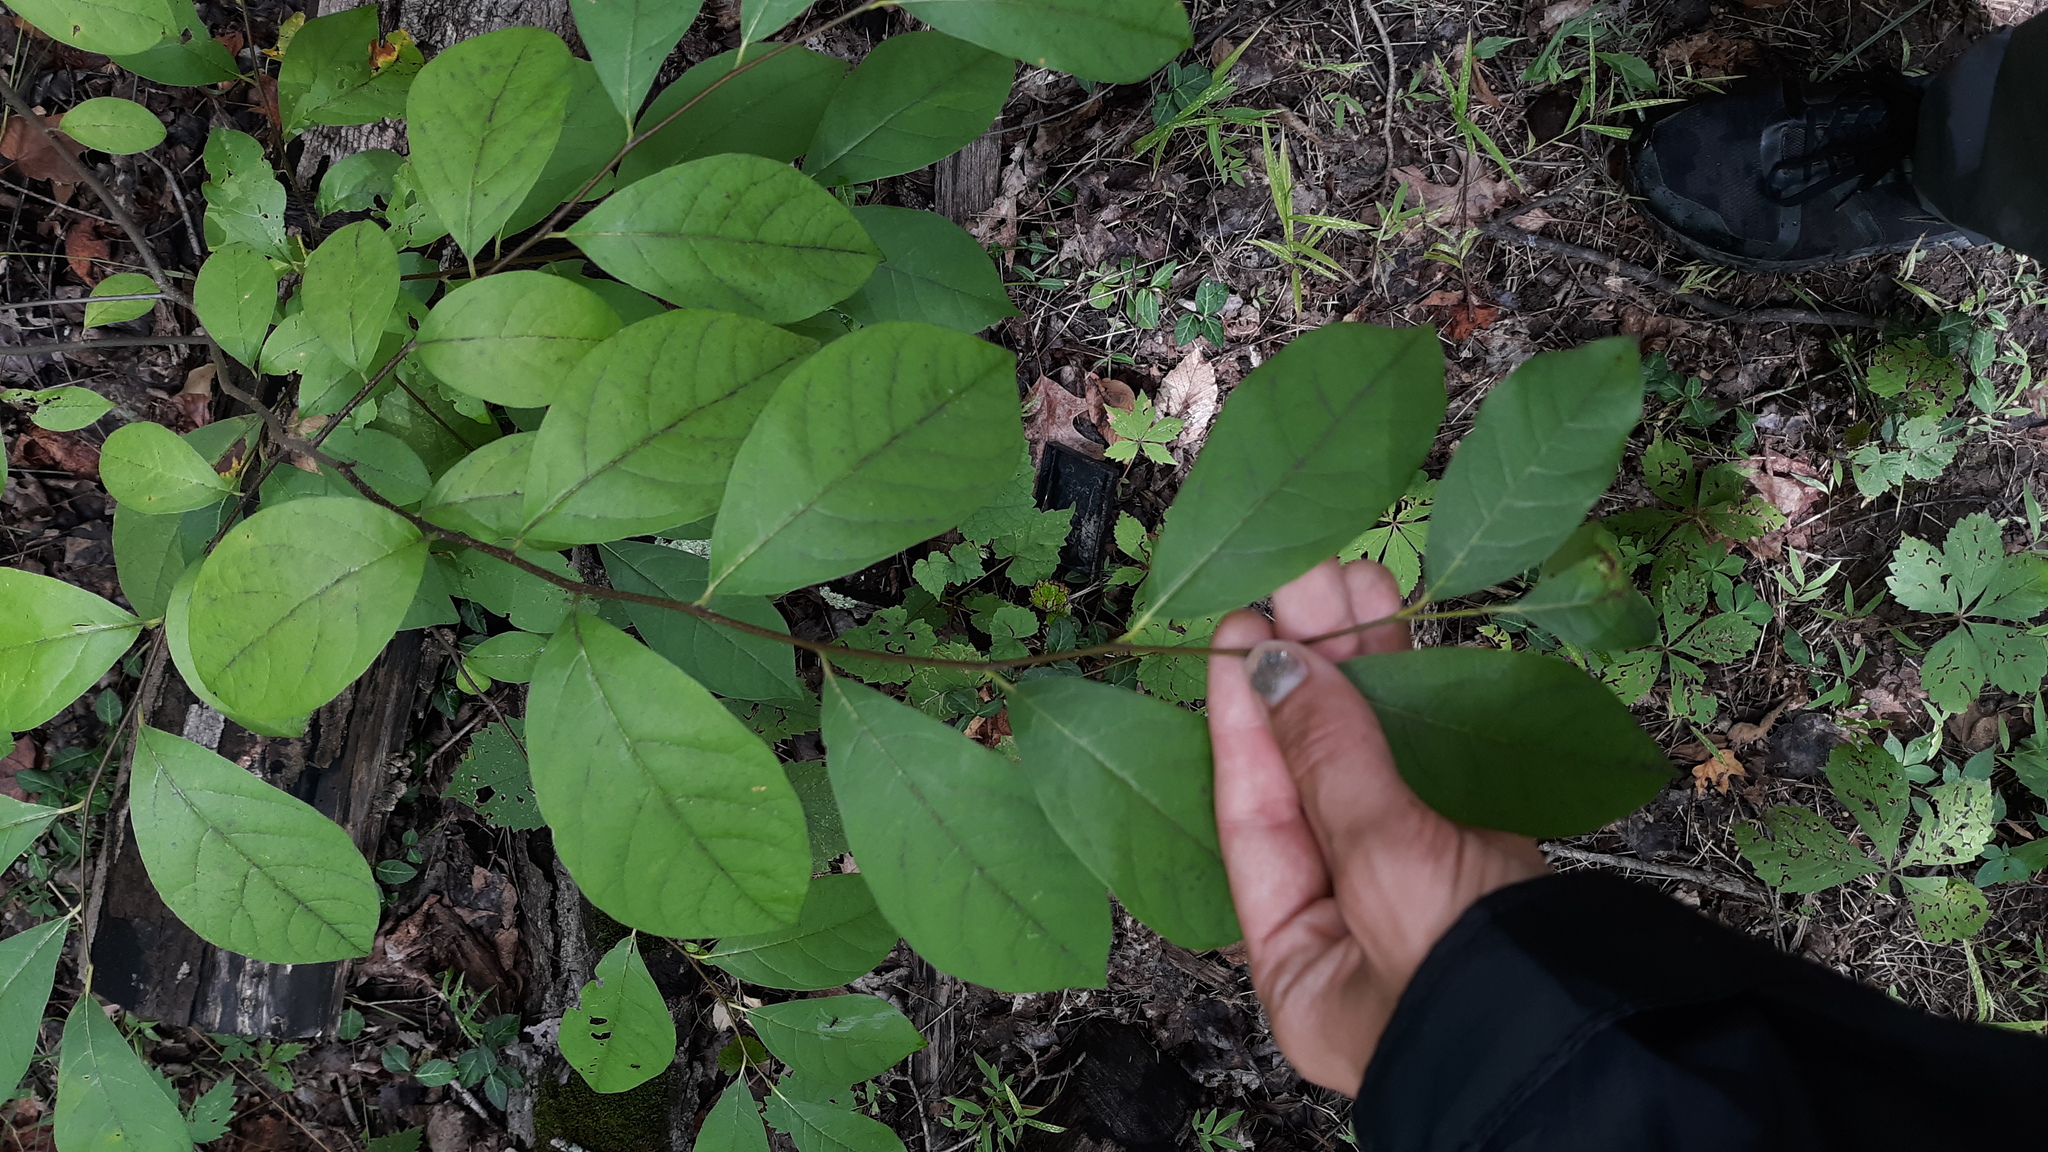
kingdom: Plantae
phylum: Tracheophyta
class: Magnoliopsida
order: Laurales
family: Lauraceae
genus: Lindera
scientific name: Lindera benzoin
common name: Spicebush
